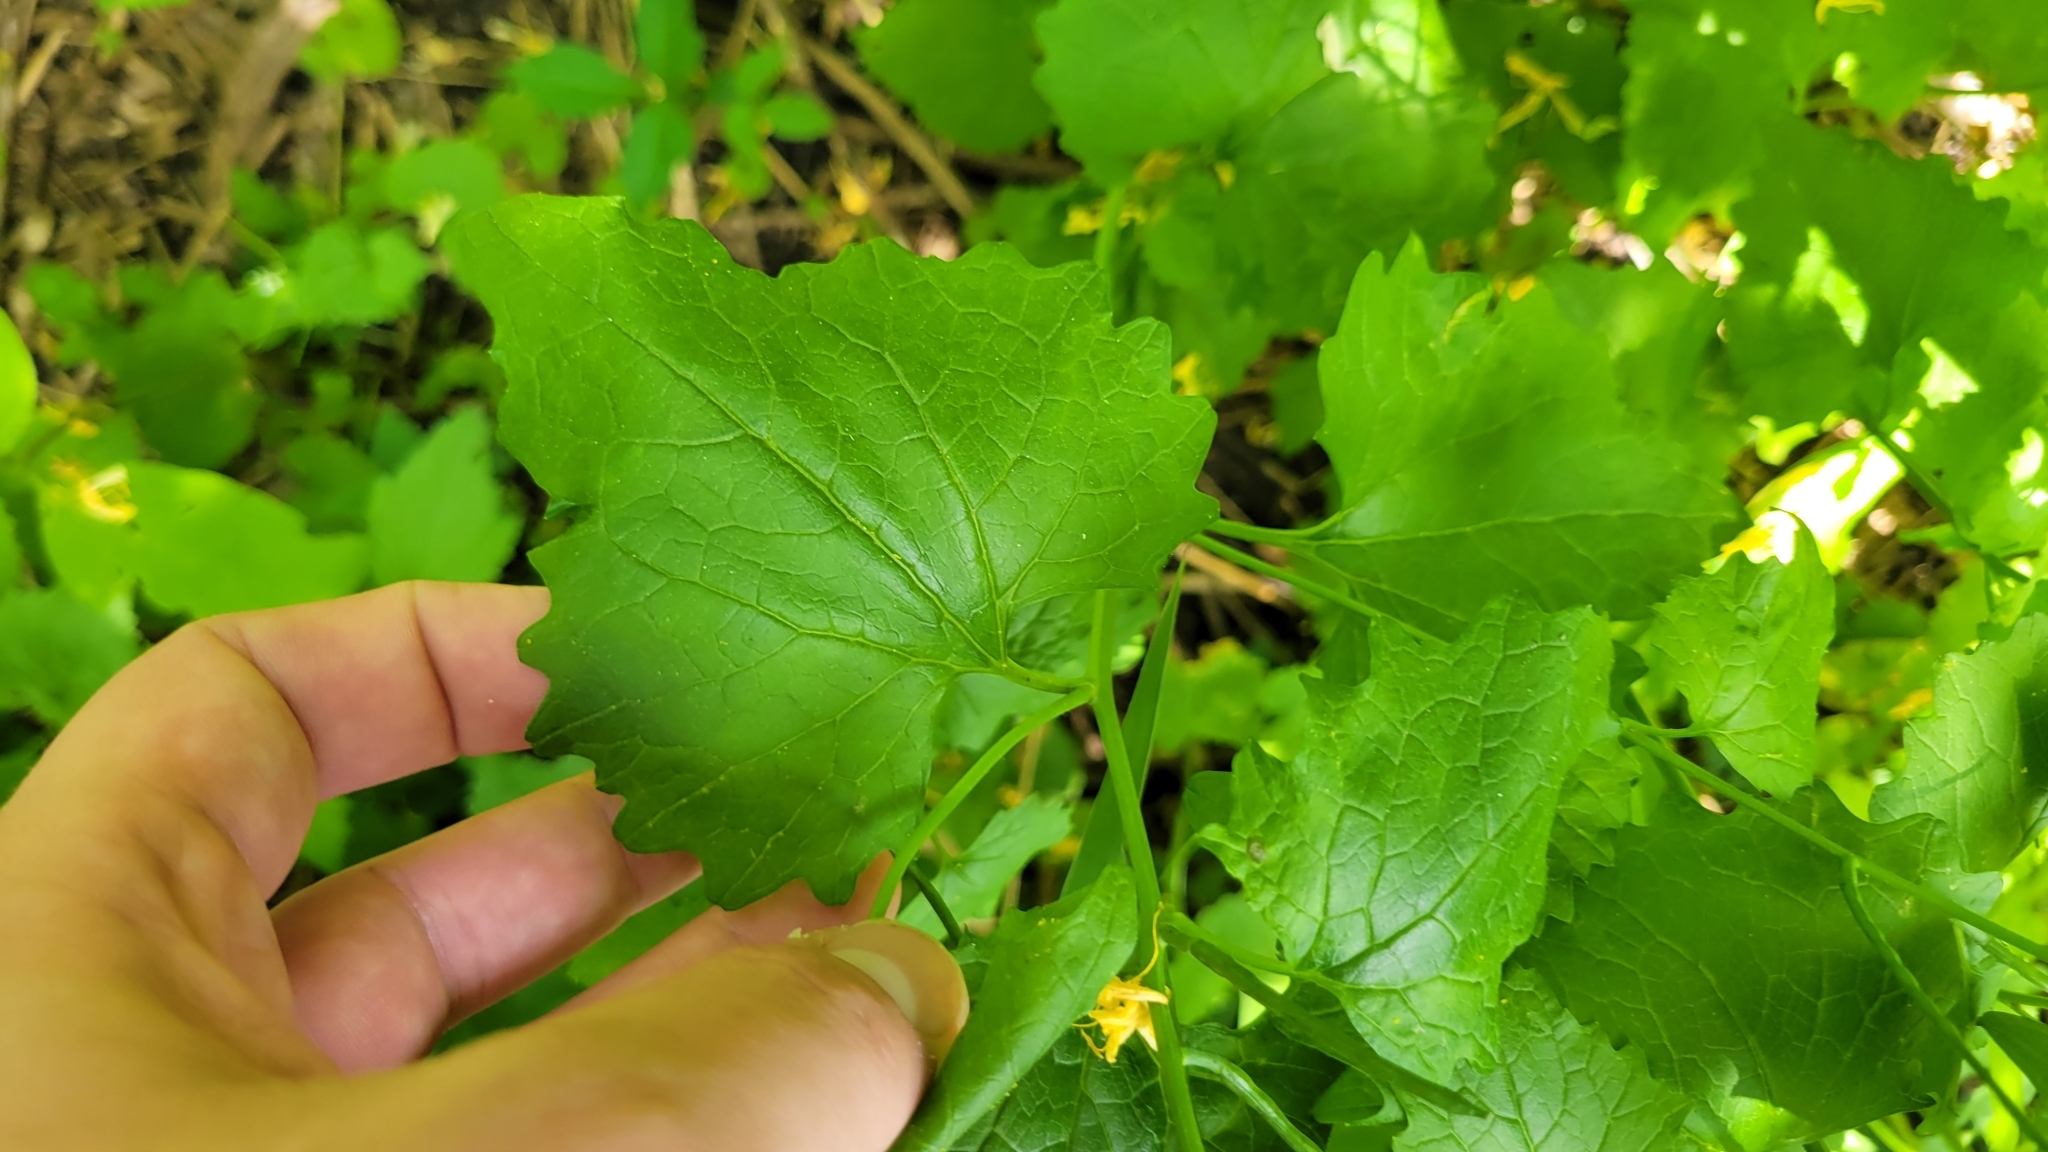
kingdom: Plantae
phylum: Tracheophyta
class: Magnoliopsida
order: Brassicales
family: Brassicaceae
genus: Alliaria
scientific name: Alliaria petiolata
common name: Garlic mustard
